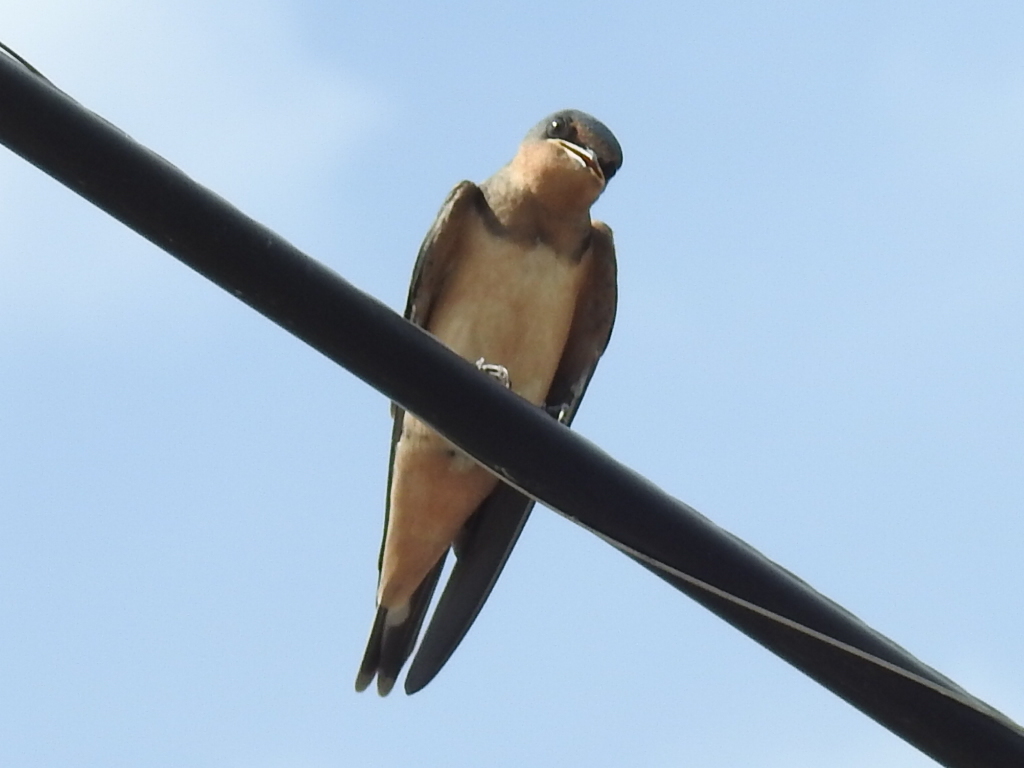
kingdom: Animalia
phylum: Chordata
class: Aves
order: Passeriformes
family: Hirundinidae
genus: Hirundo
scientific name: Hirundo rustica
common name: Barn swallow
